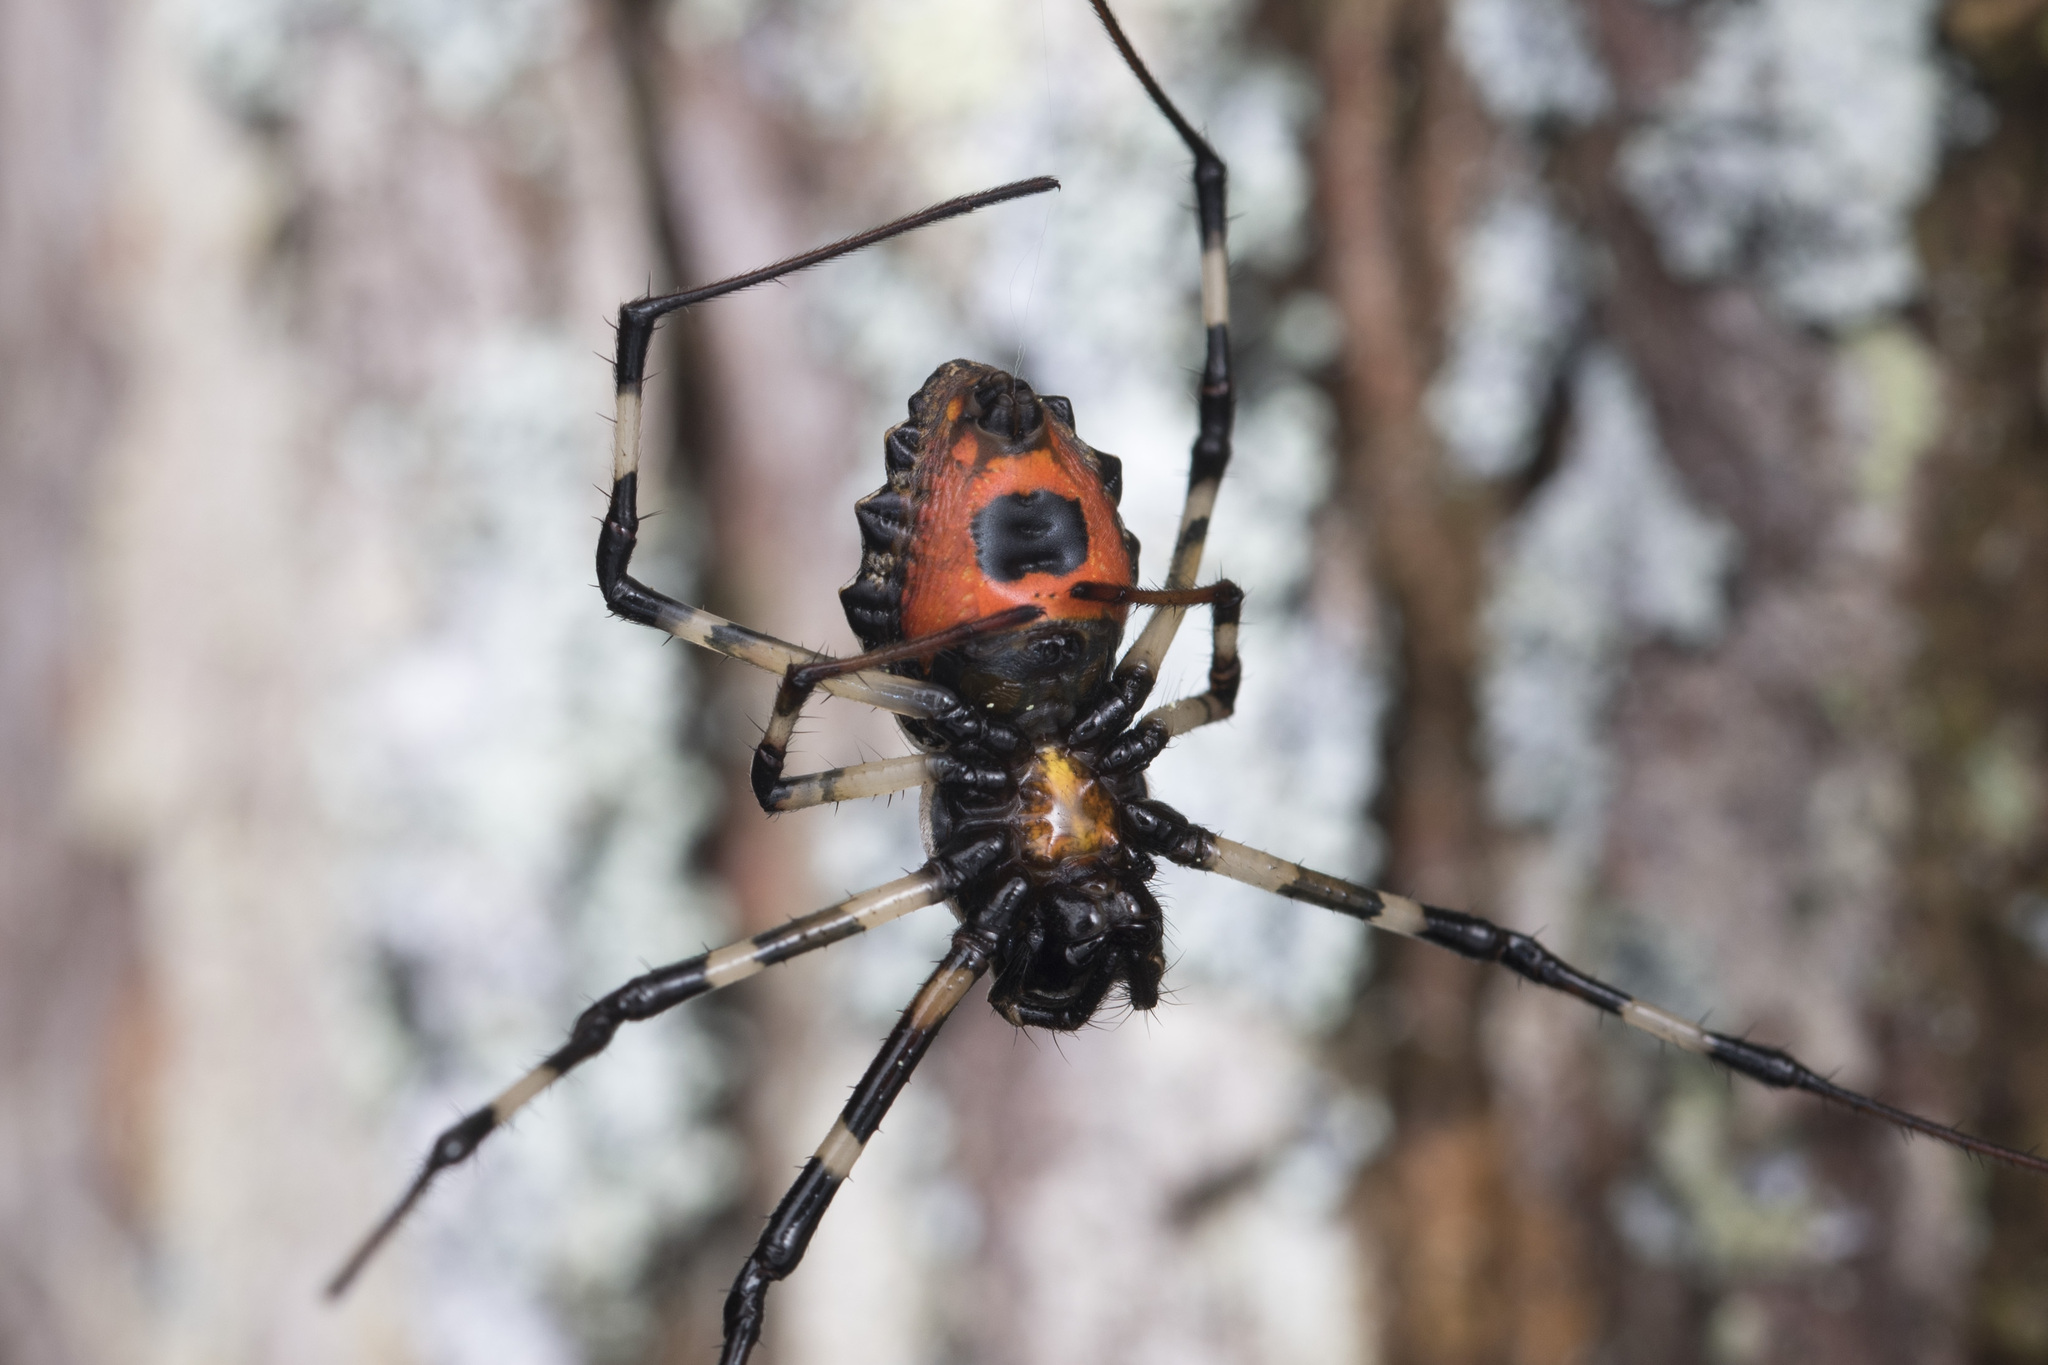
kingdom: Animalia
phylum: Arthropoda
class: Arachnida
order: Araneae
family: Araneidae
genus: Herennia
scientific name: Herennia multipuncta
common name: Spotted coin spider
